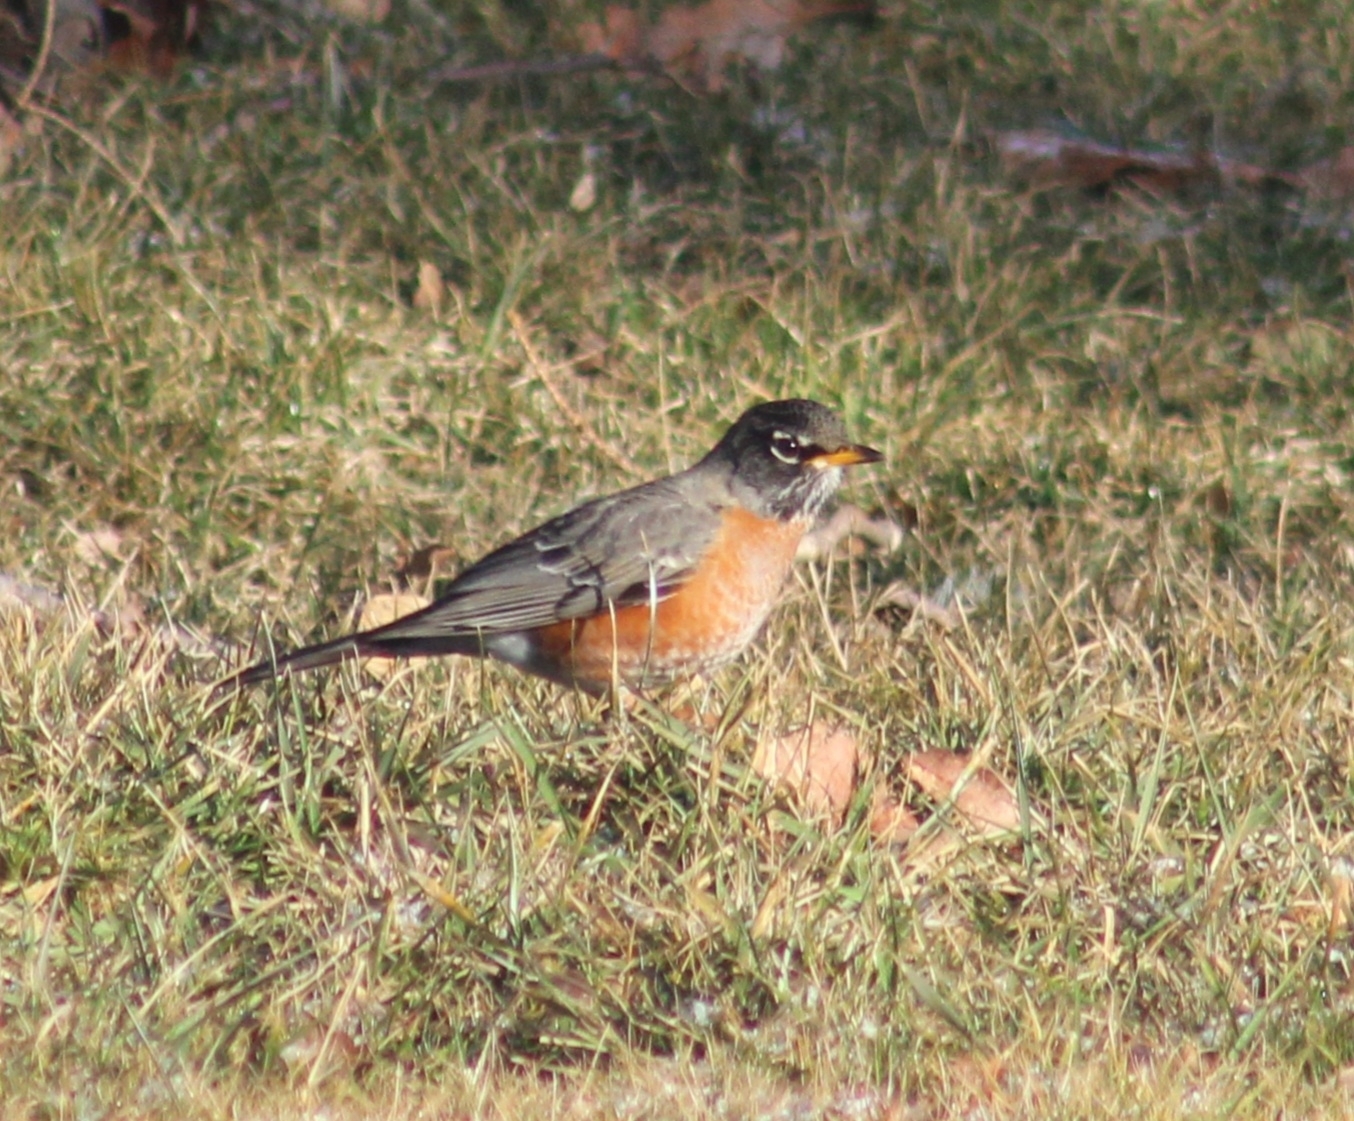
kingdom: Animalia
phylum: Chordata
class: Aves
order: Passeriformes
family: Turdidae
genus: Turdus
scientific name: Turdus migratorius
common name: American robin
